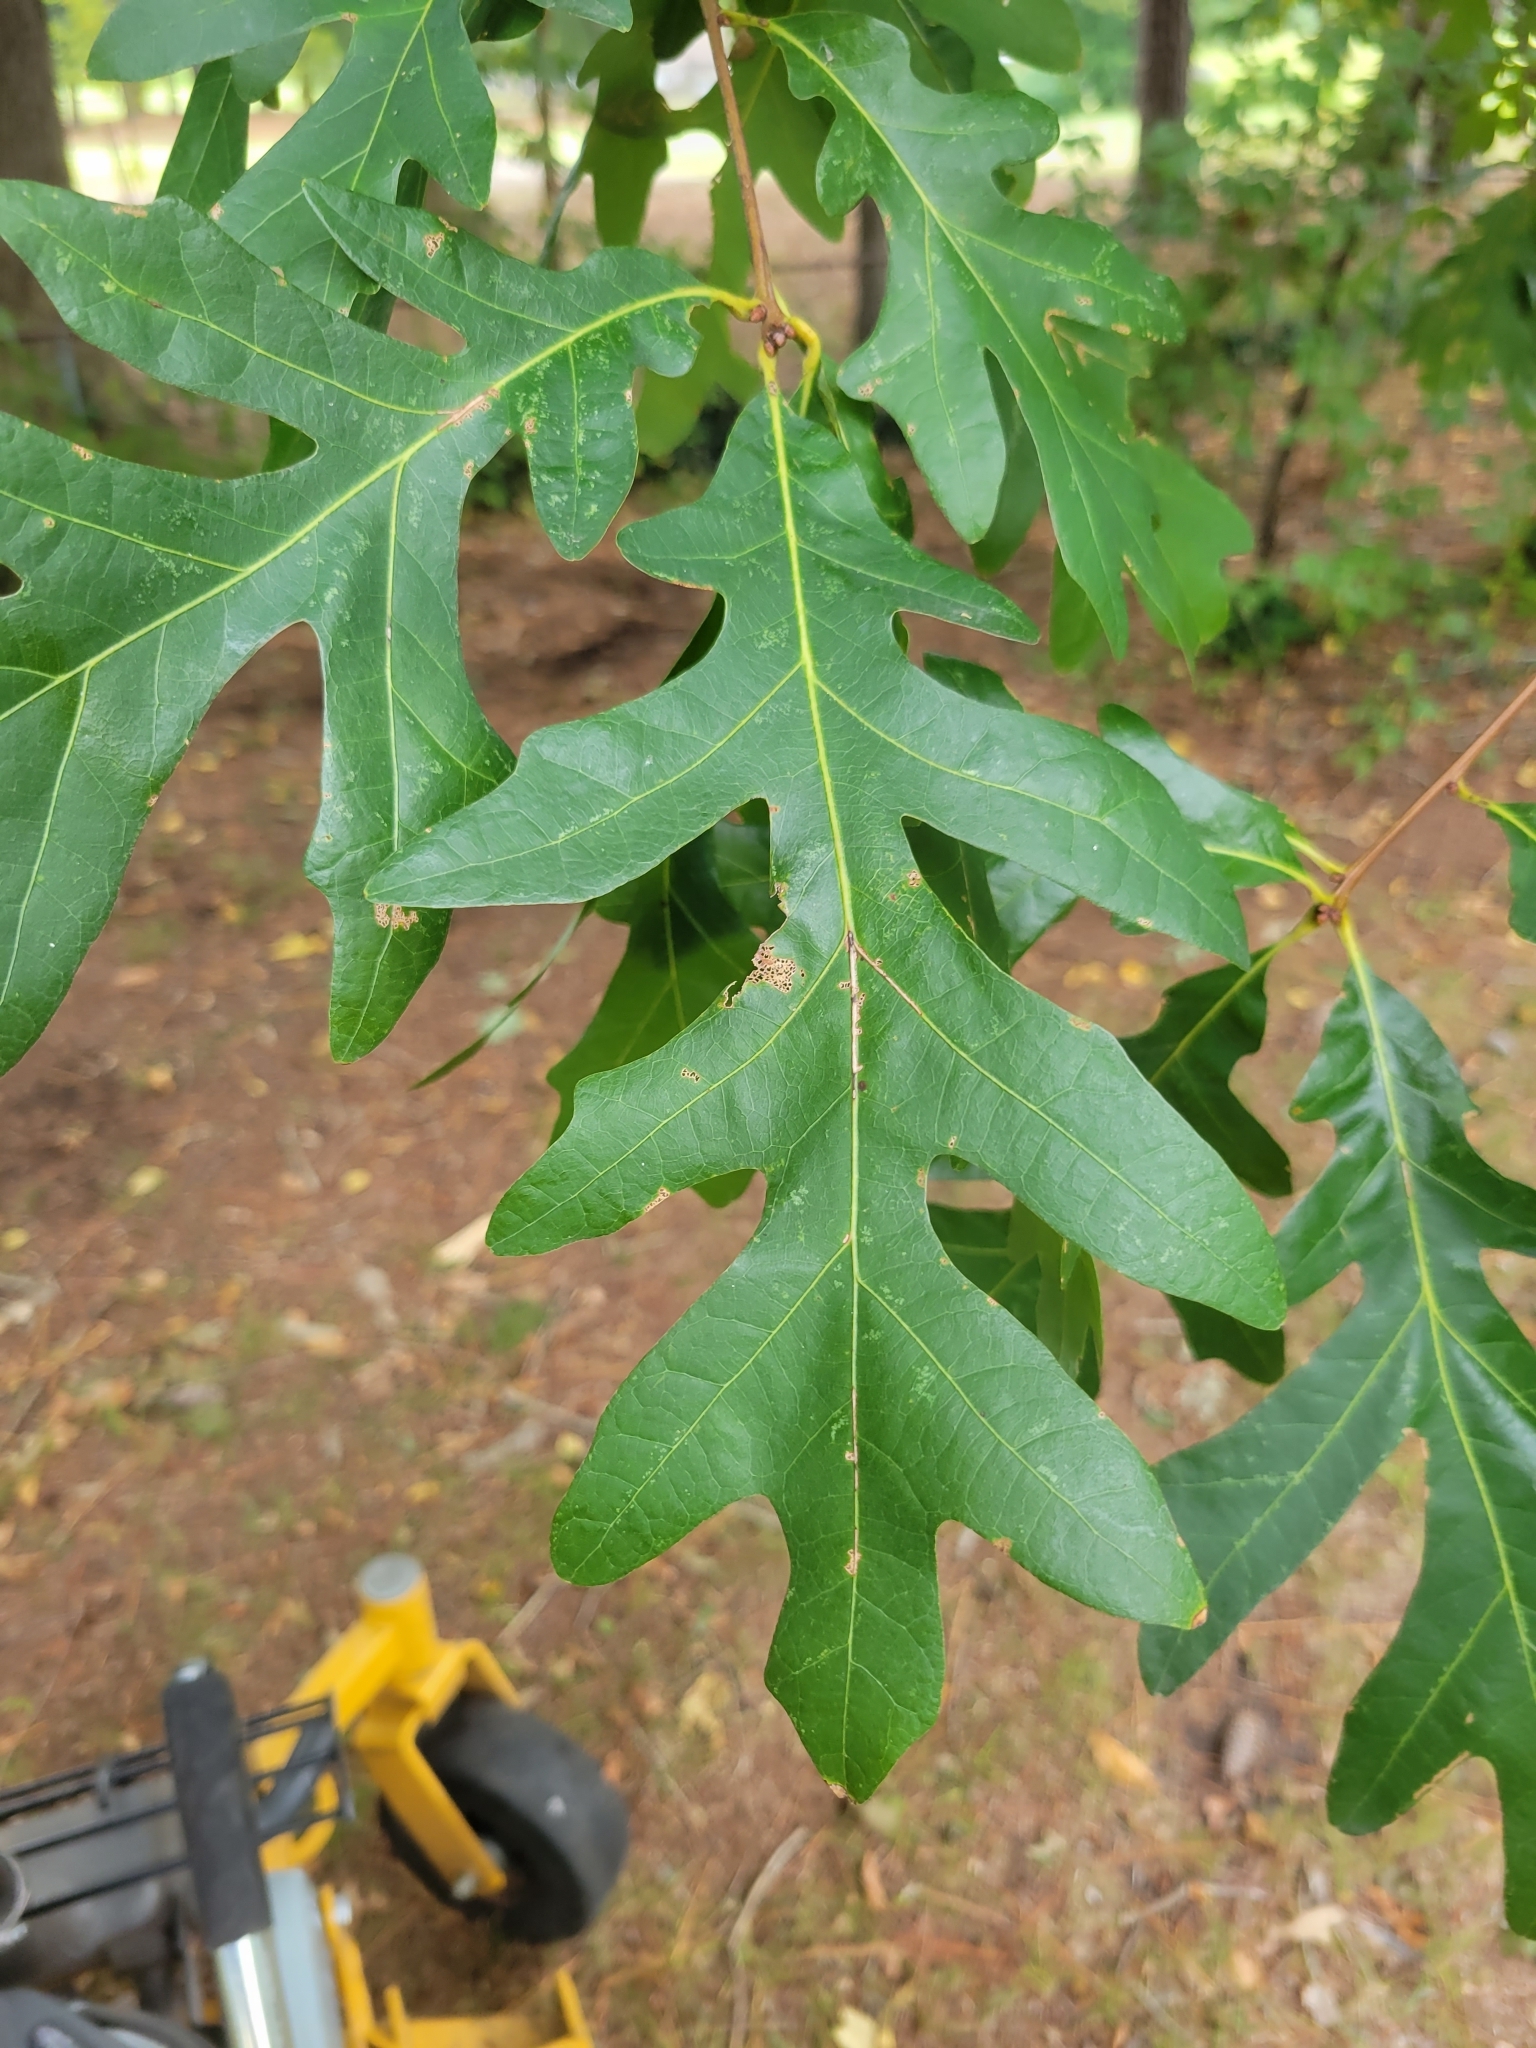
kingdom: Plantae
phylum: Tracheophyta
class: Magnoliopsida
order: Fagales
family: Fagaceae
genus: Quercus
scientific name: Quercus alba
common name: White oak
